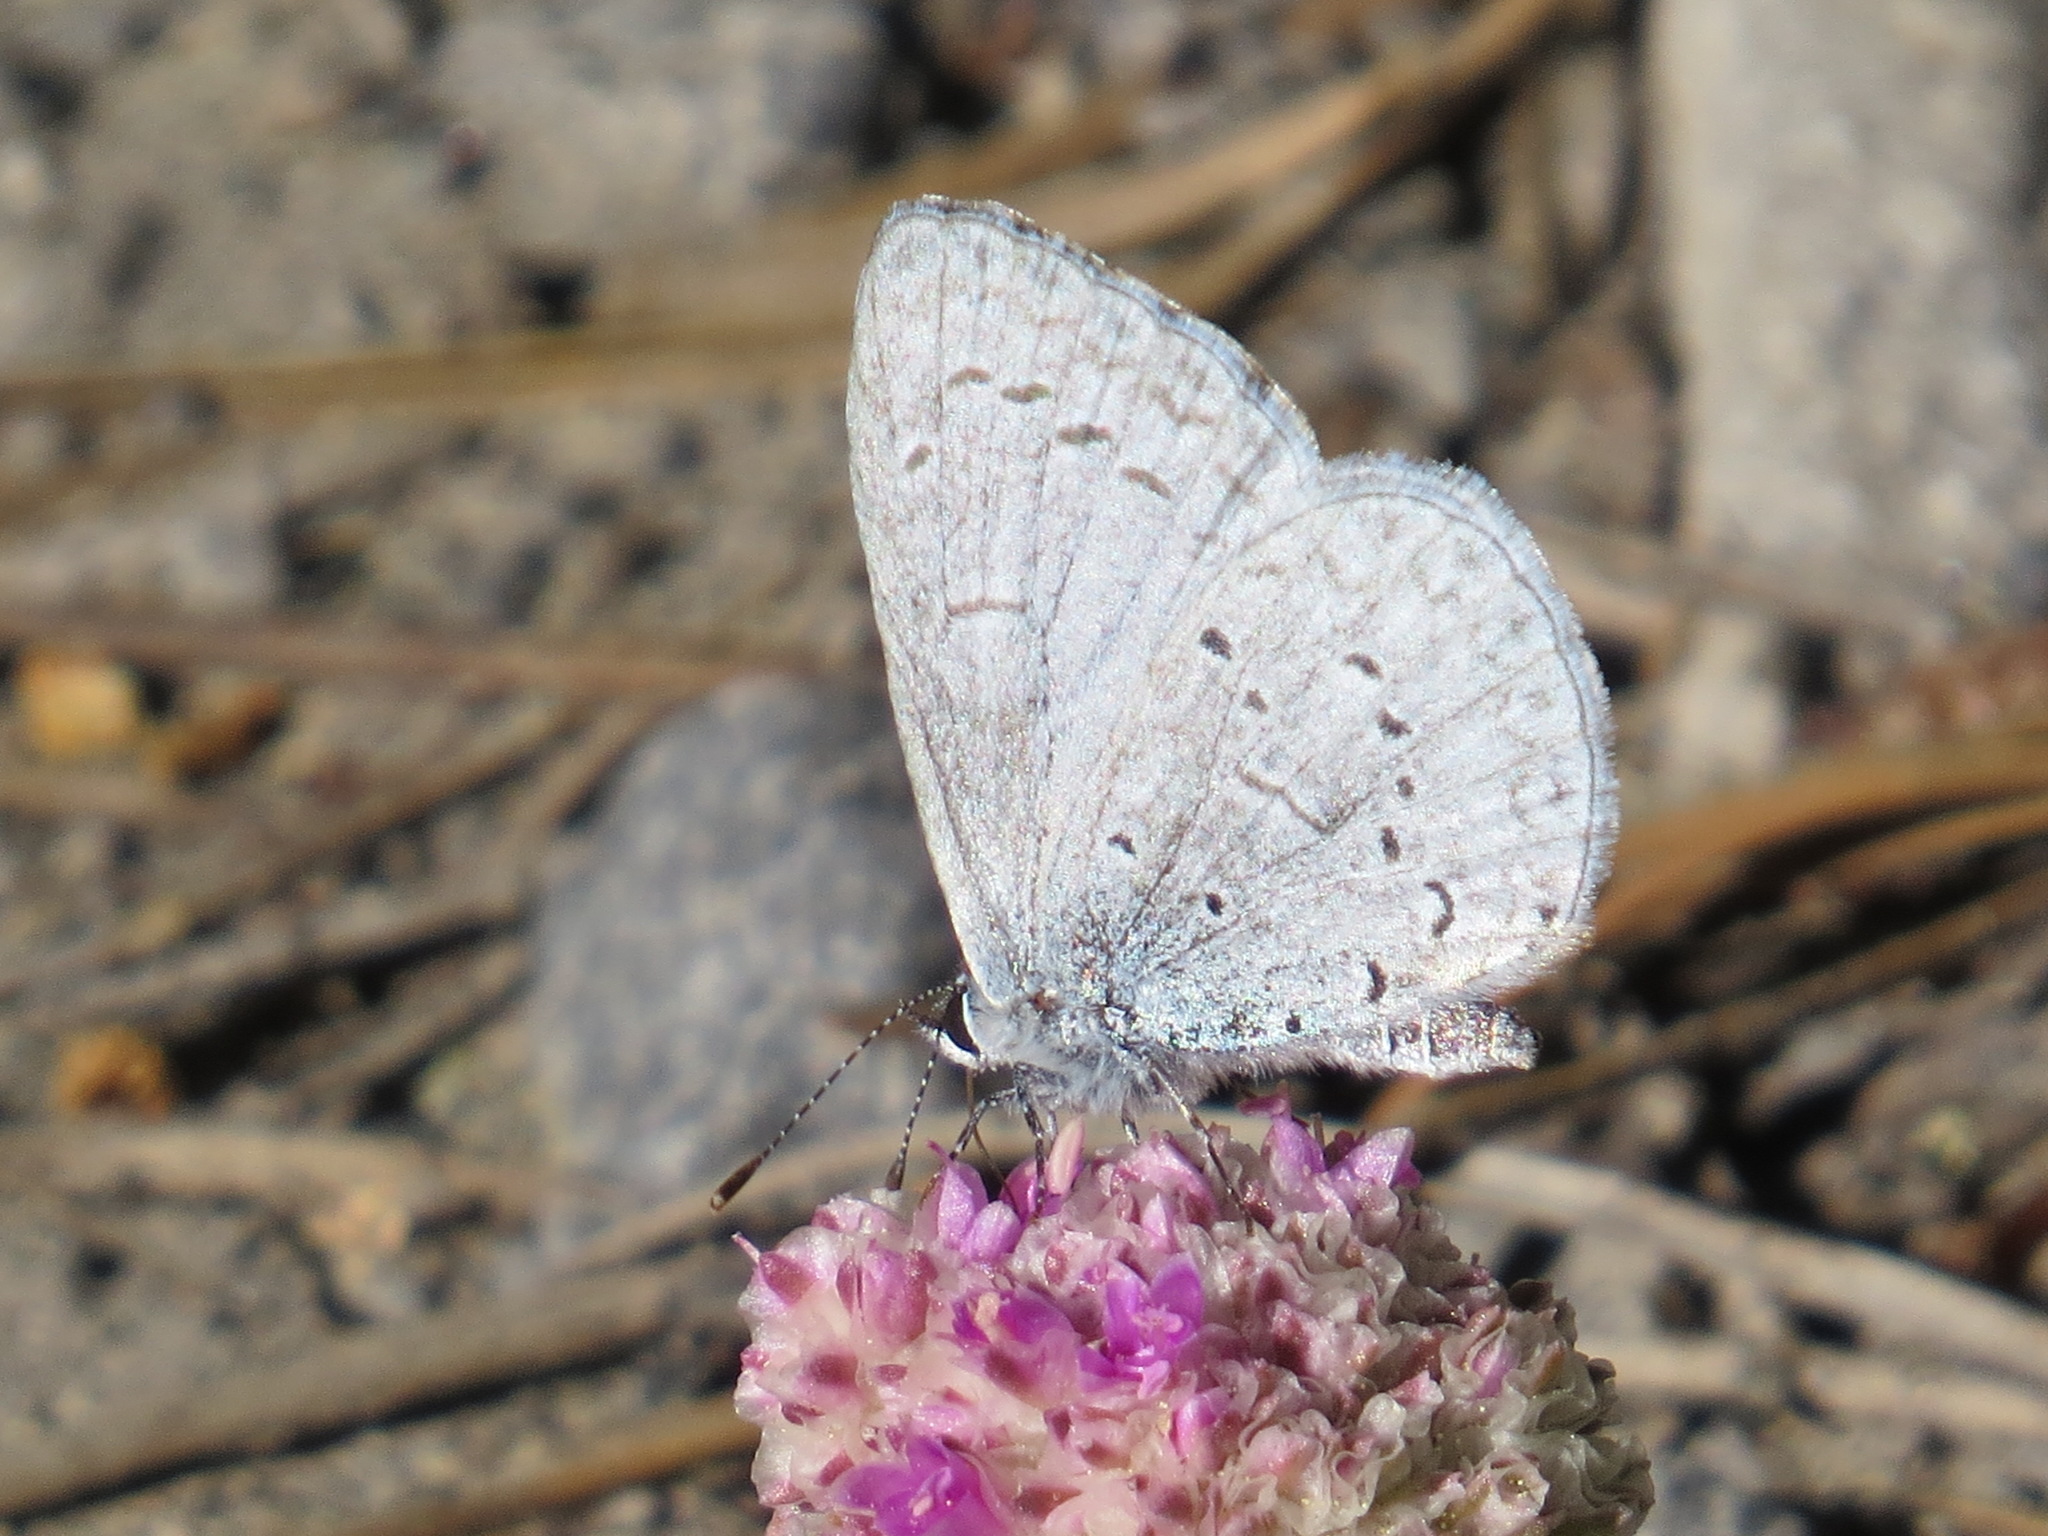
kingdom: Animalia
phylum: Arthropoda
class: Insecta
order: Lepidoptera
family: Lycaenidae
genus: Celastrina
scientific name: Celastrina ladon
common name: Spring azure
